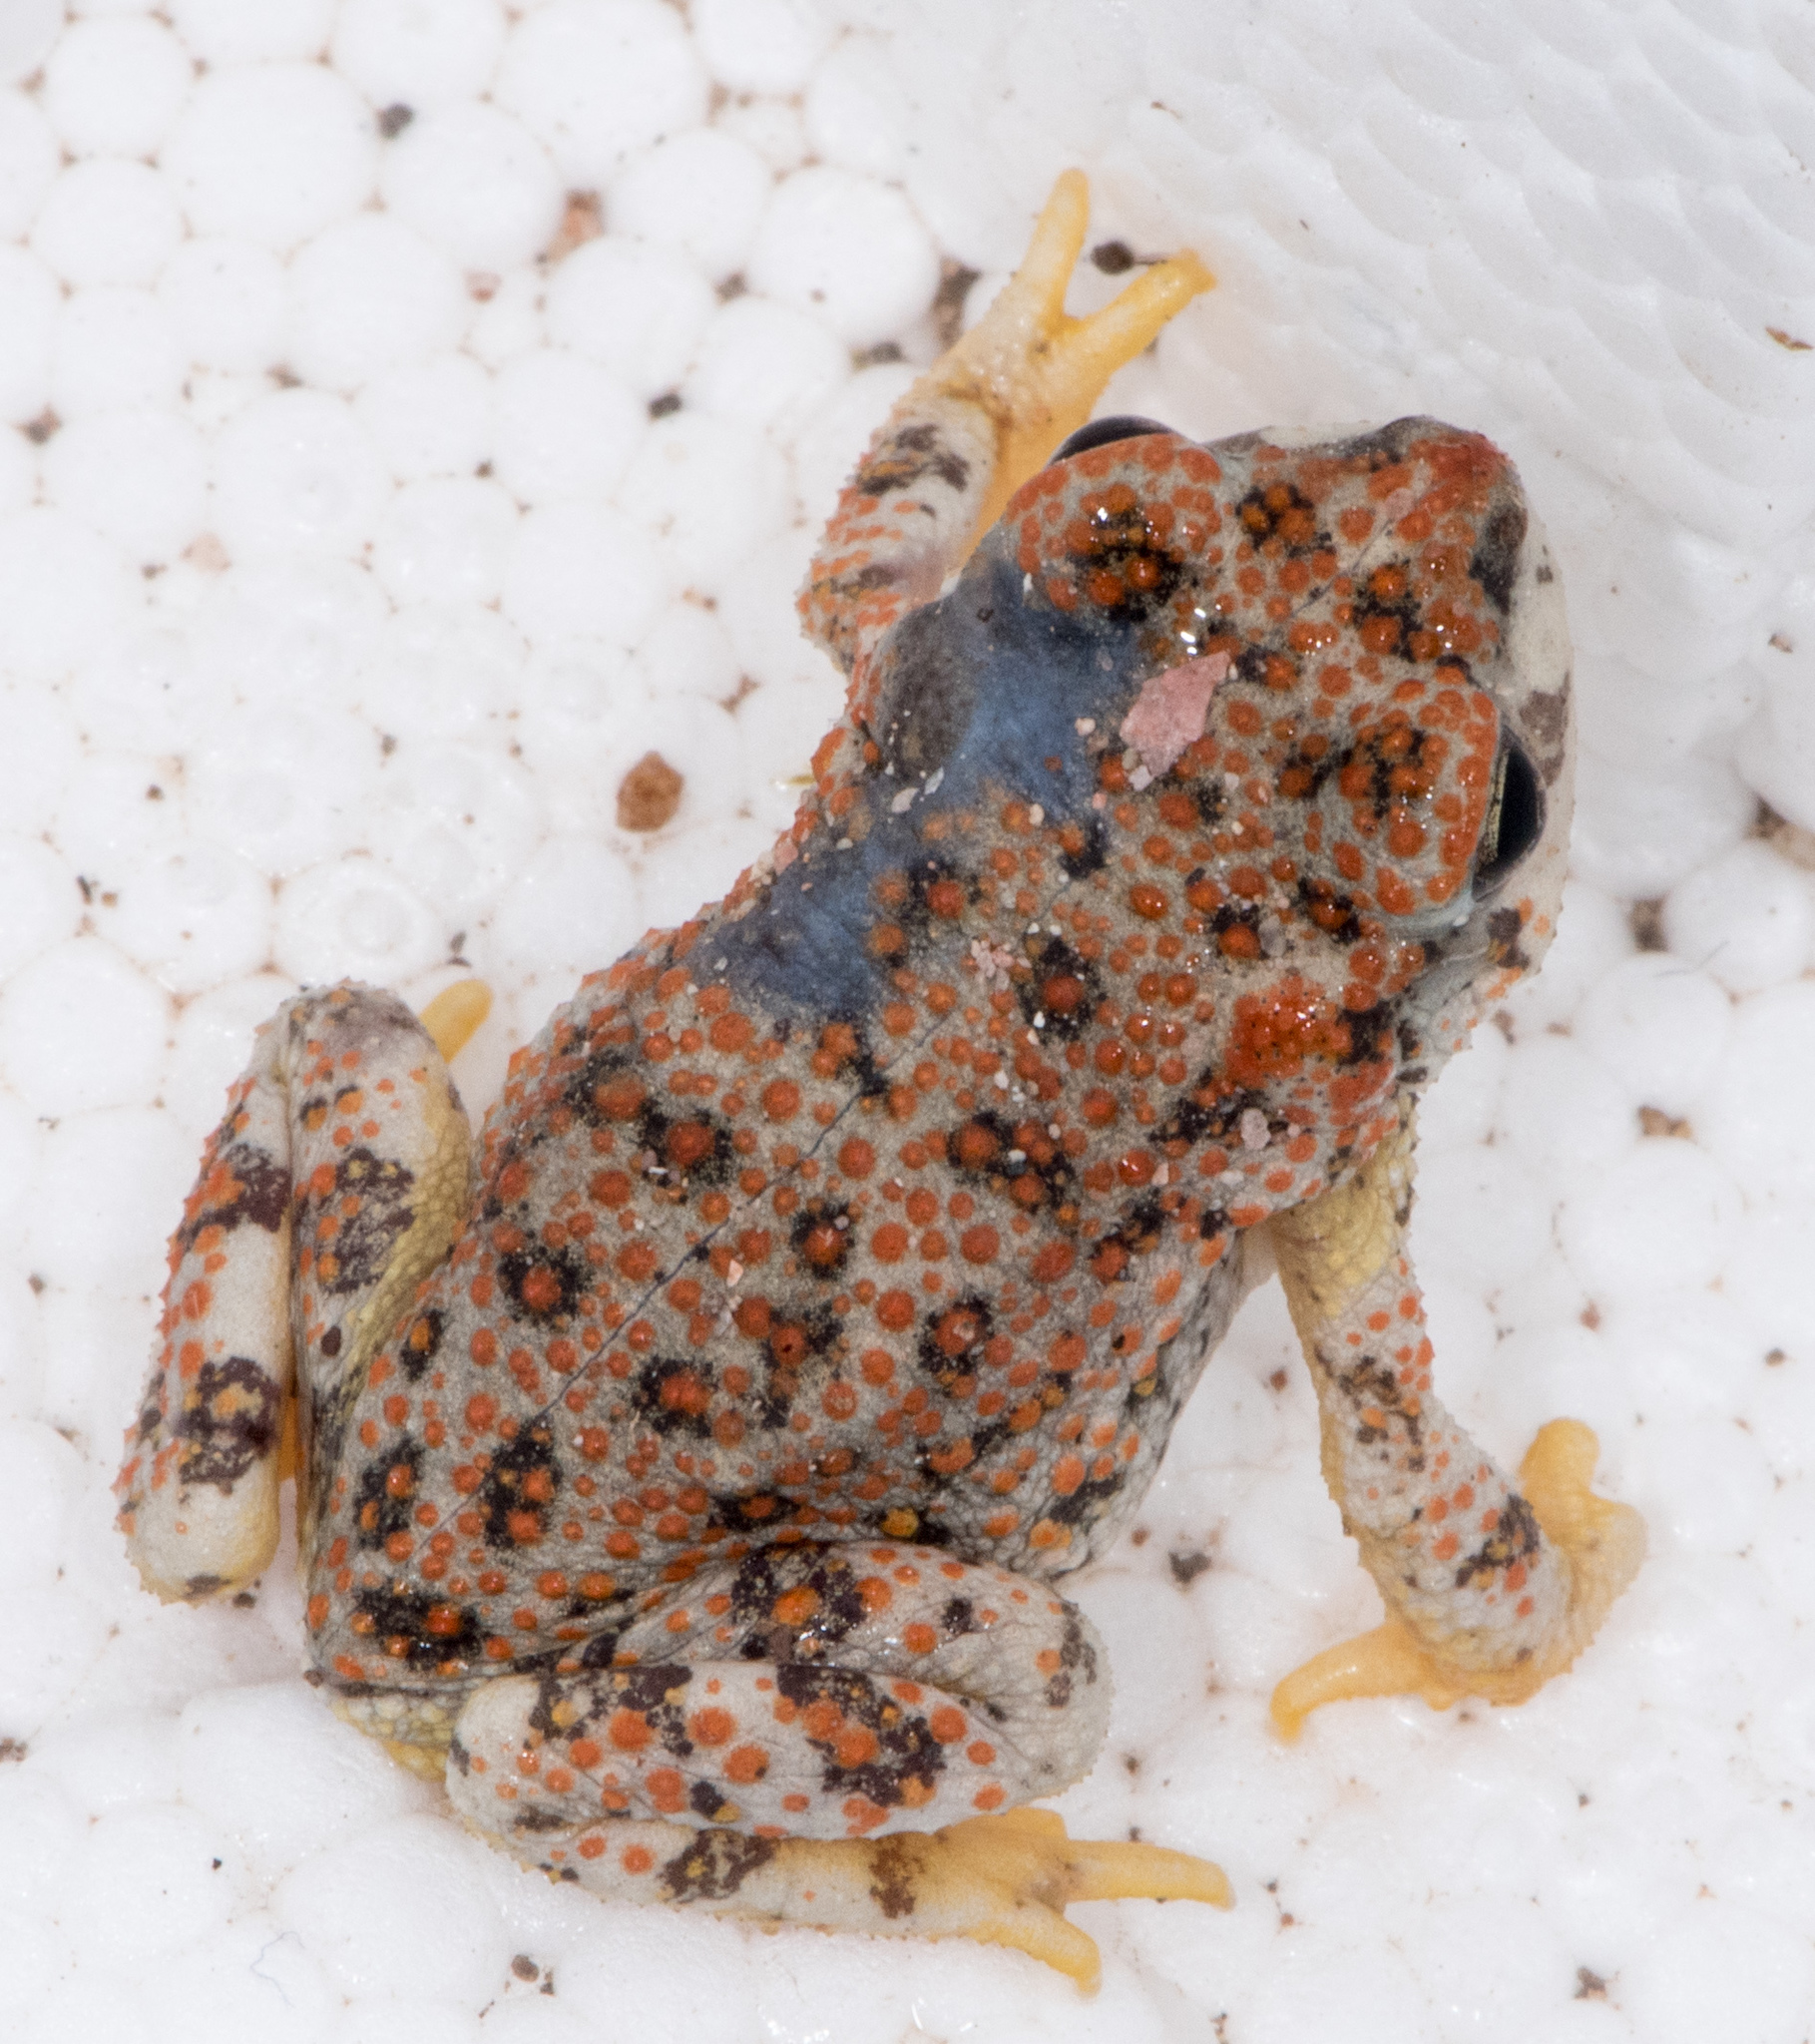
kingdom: Animalia
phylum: Chordata
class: Amphibia
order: Anura
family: Bufonidae
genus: Anaxyrus
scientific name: Anaxyrus punctatus
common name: Red-spotted toad
